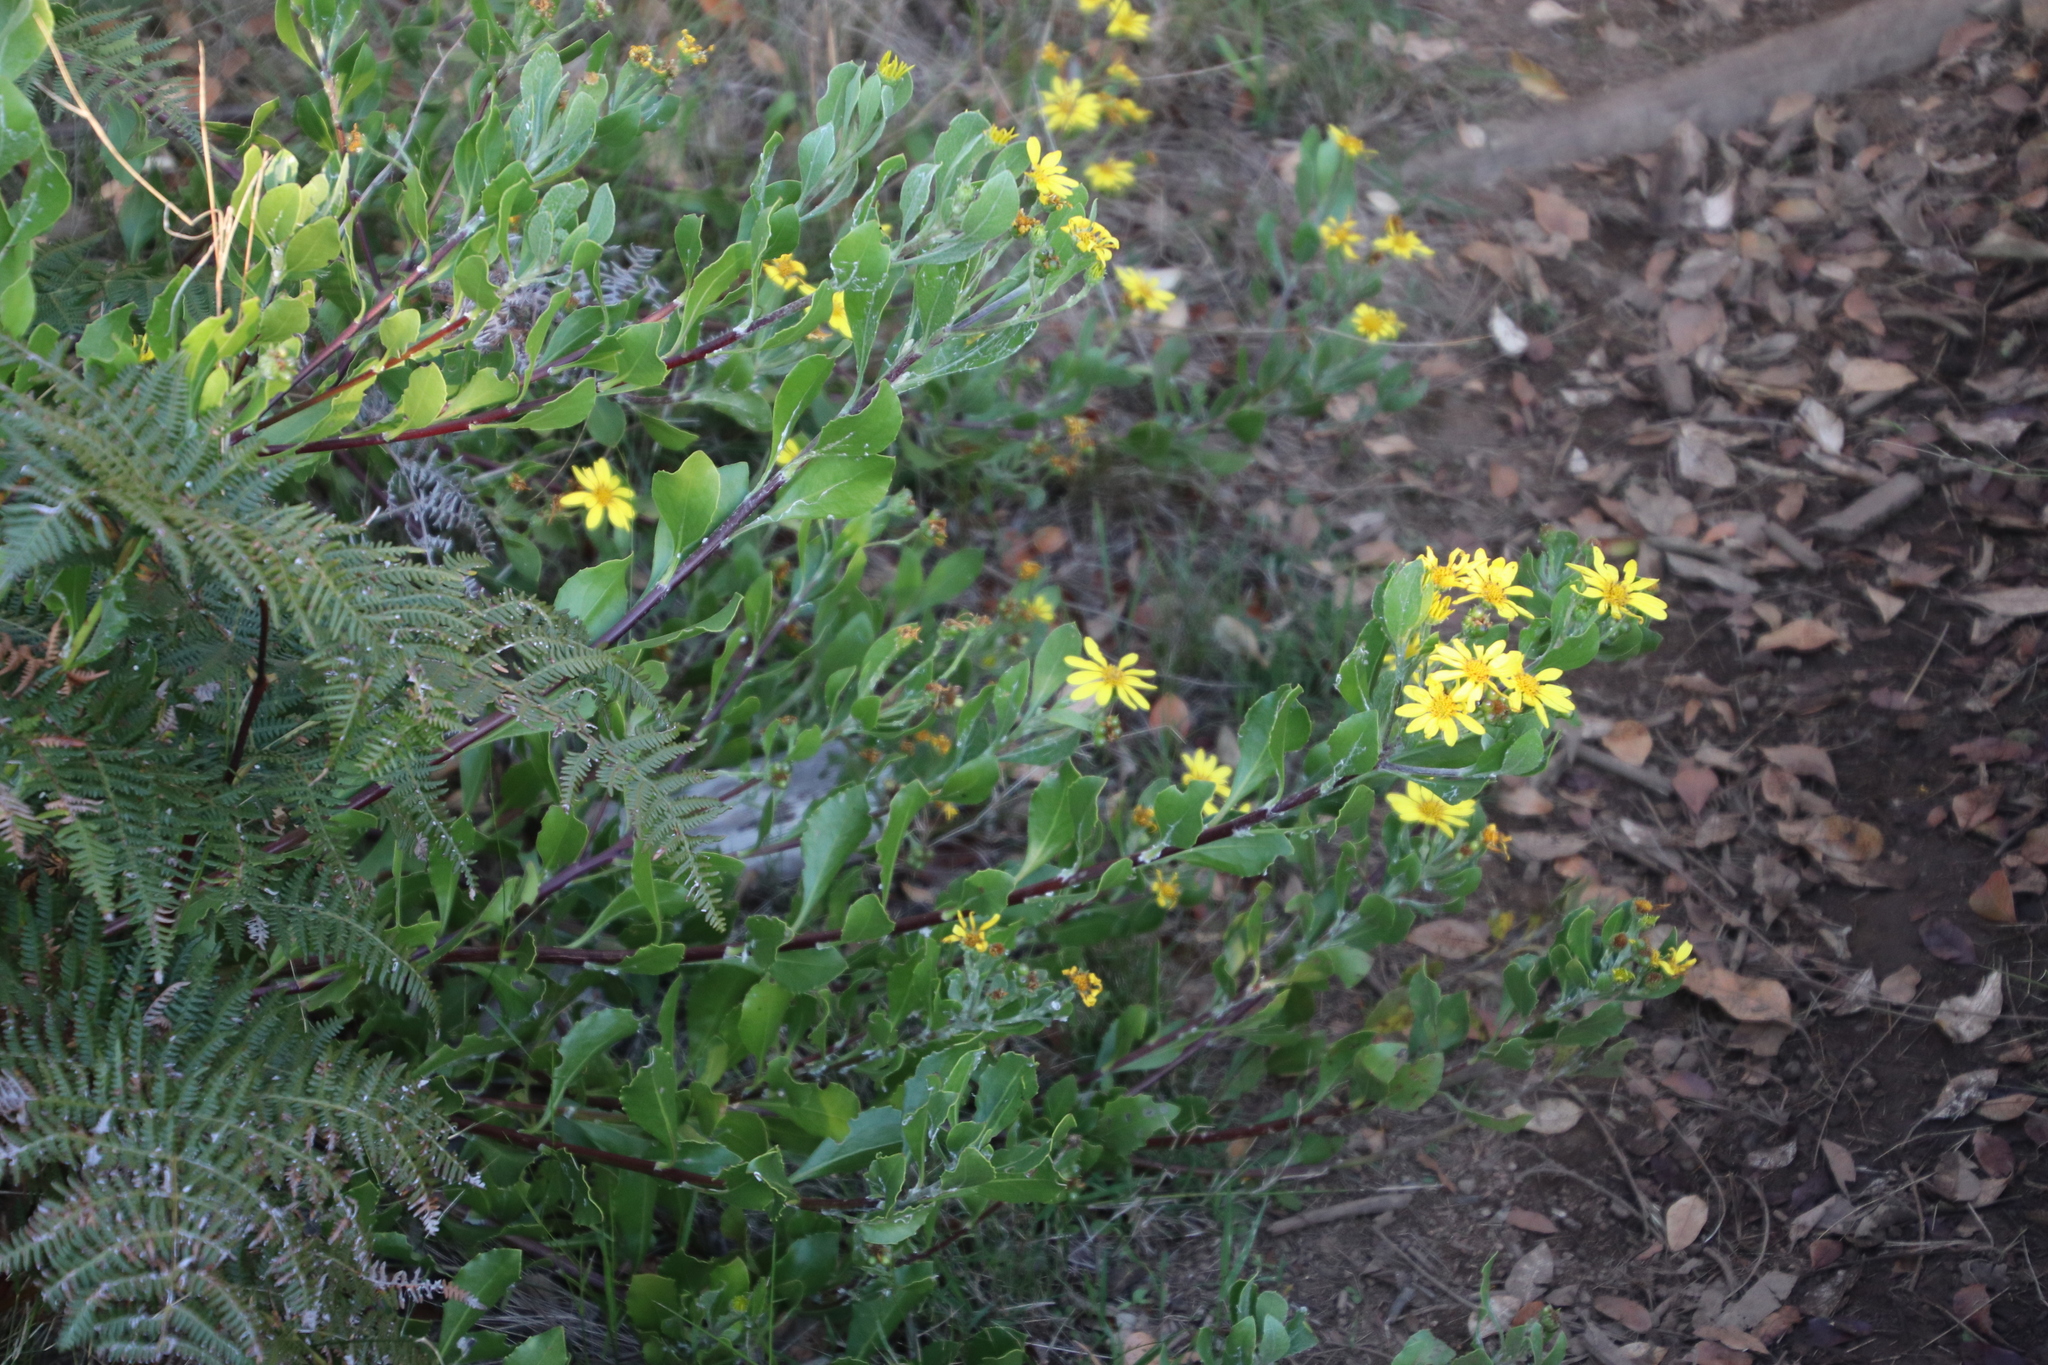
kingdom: Plantae
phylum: Tracheophyta
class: Magnoliopsida
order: Asterales
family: Asteraceae
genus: Osteospermum
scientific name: Osteospermum moniliferum
